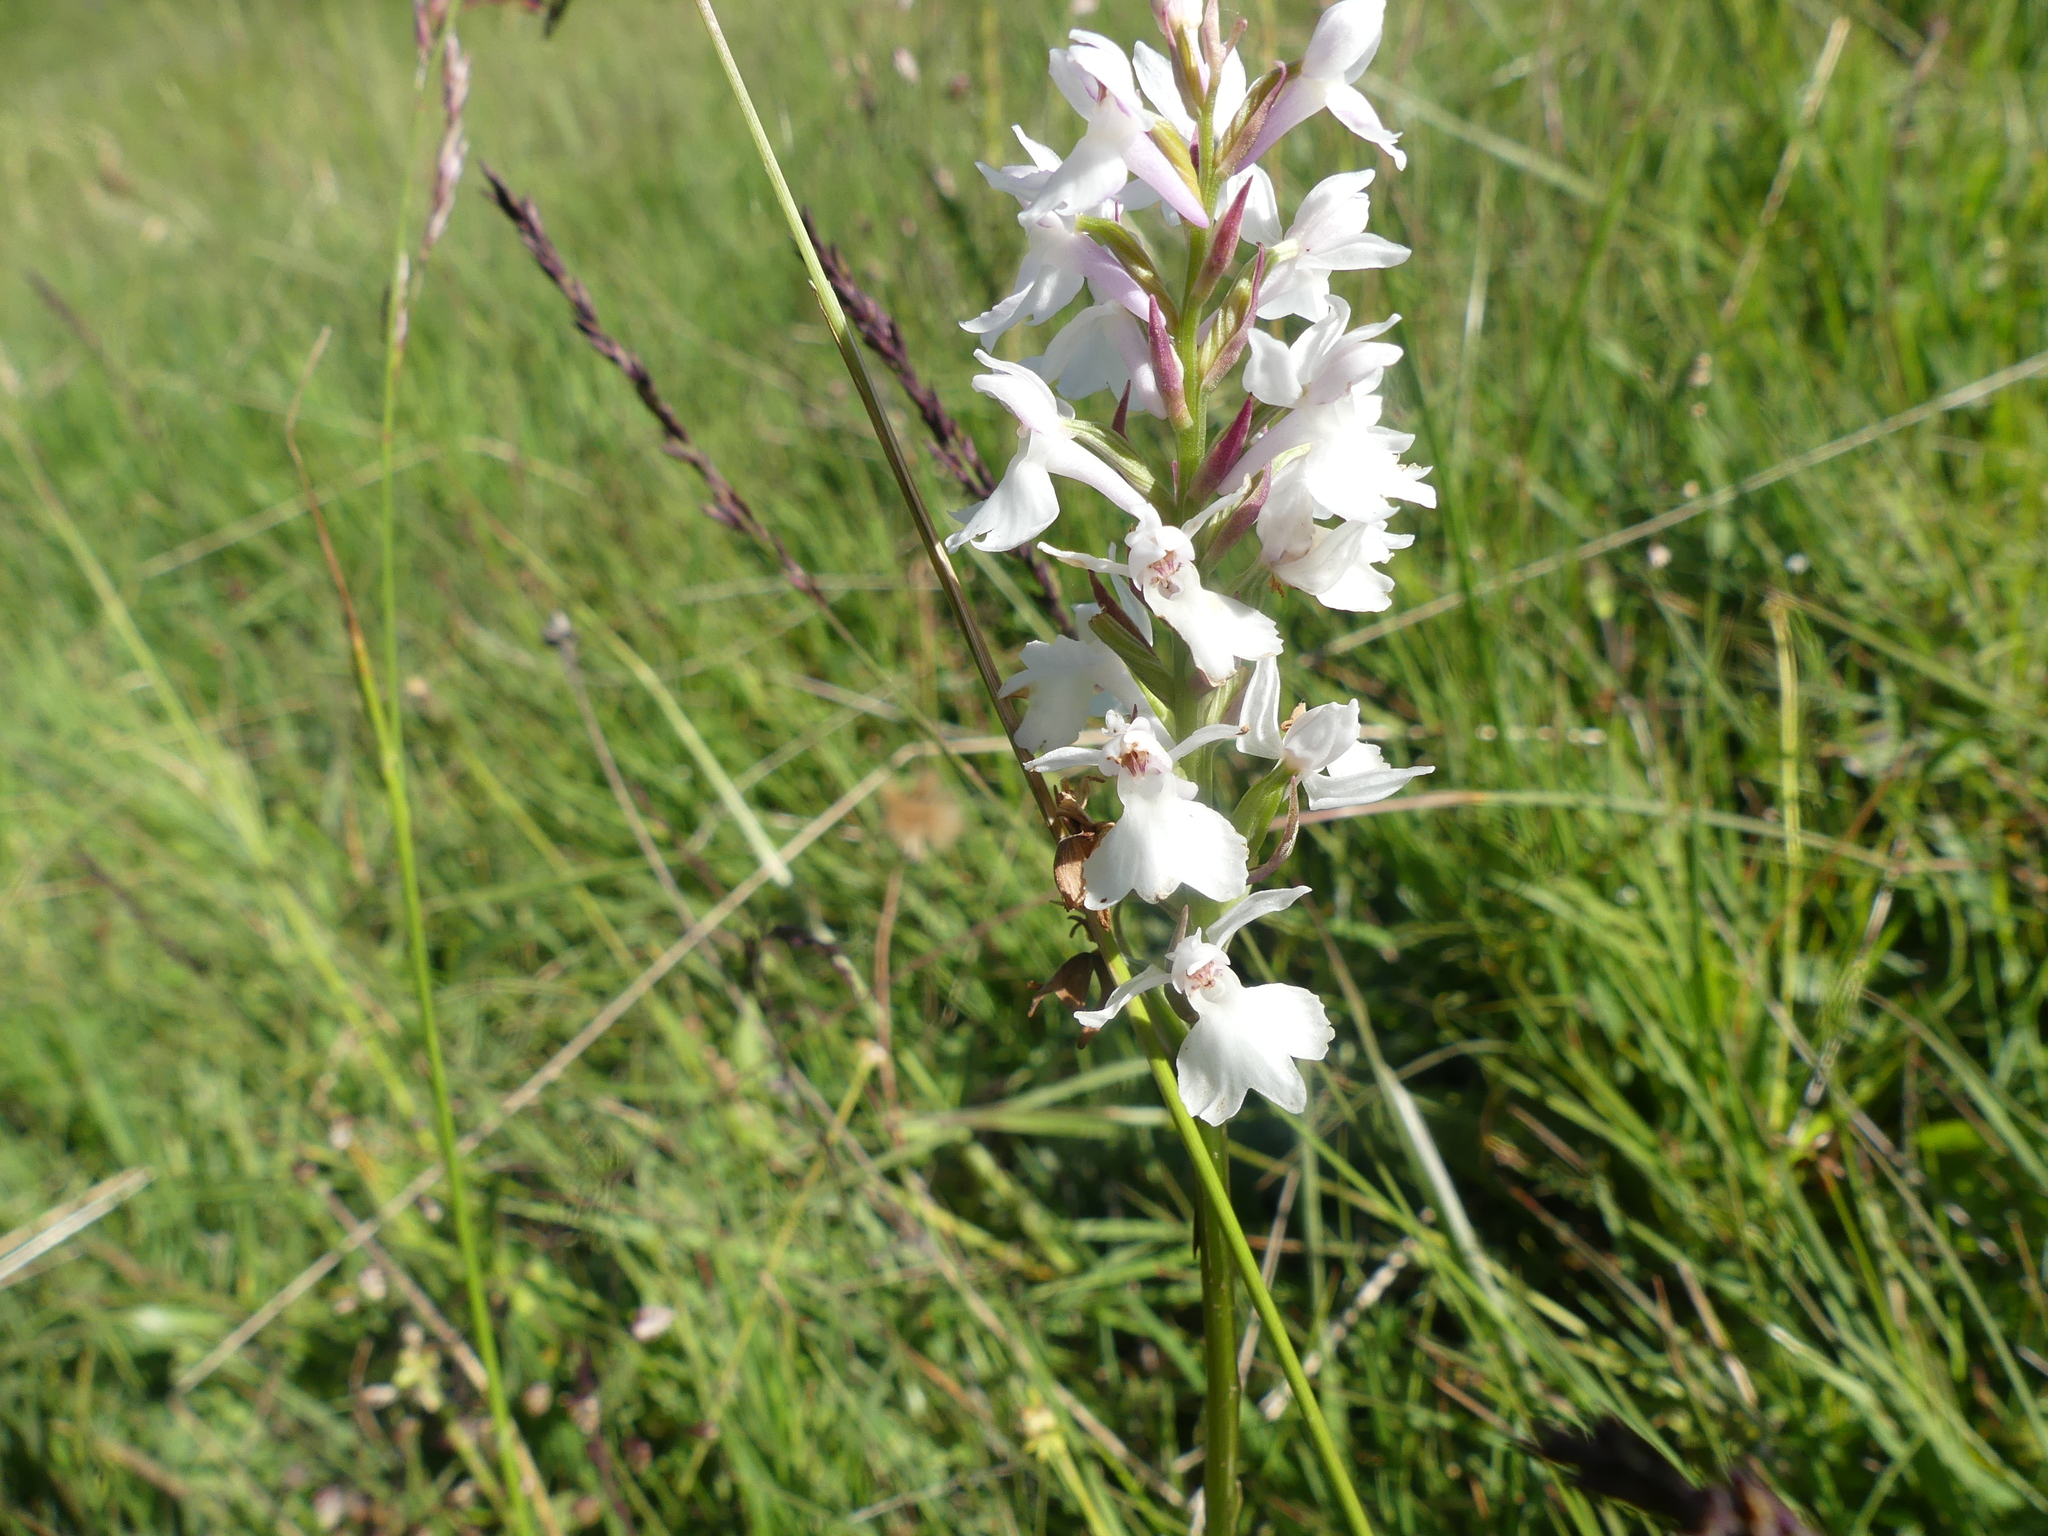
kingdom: Plantae
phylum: Tracheophyta
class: Liliopsida
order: Asparagales
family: Orchidaceae
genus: Dactylorhiza
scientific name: Dactylorhiza maculata
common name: Heath spotted-orchid
